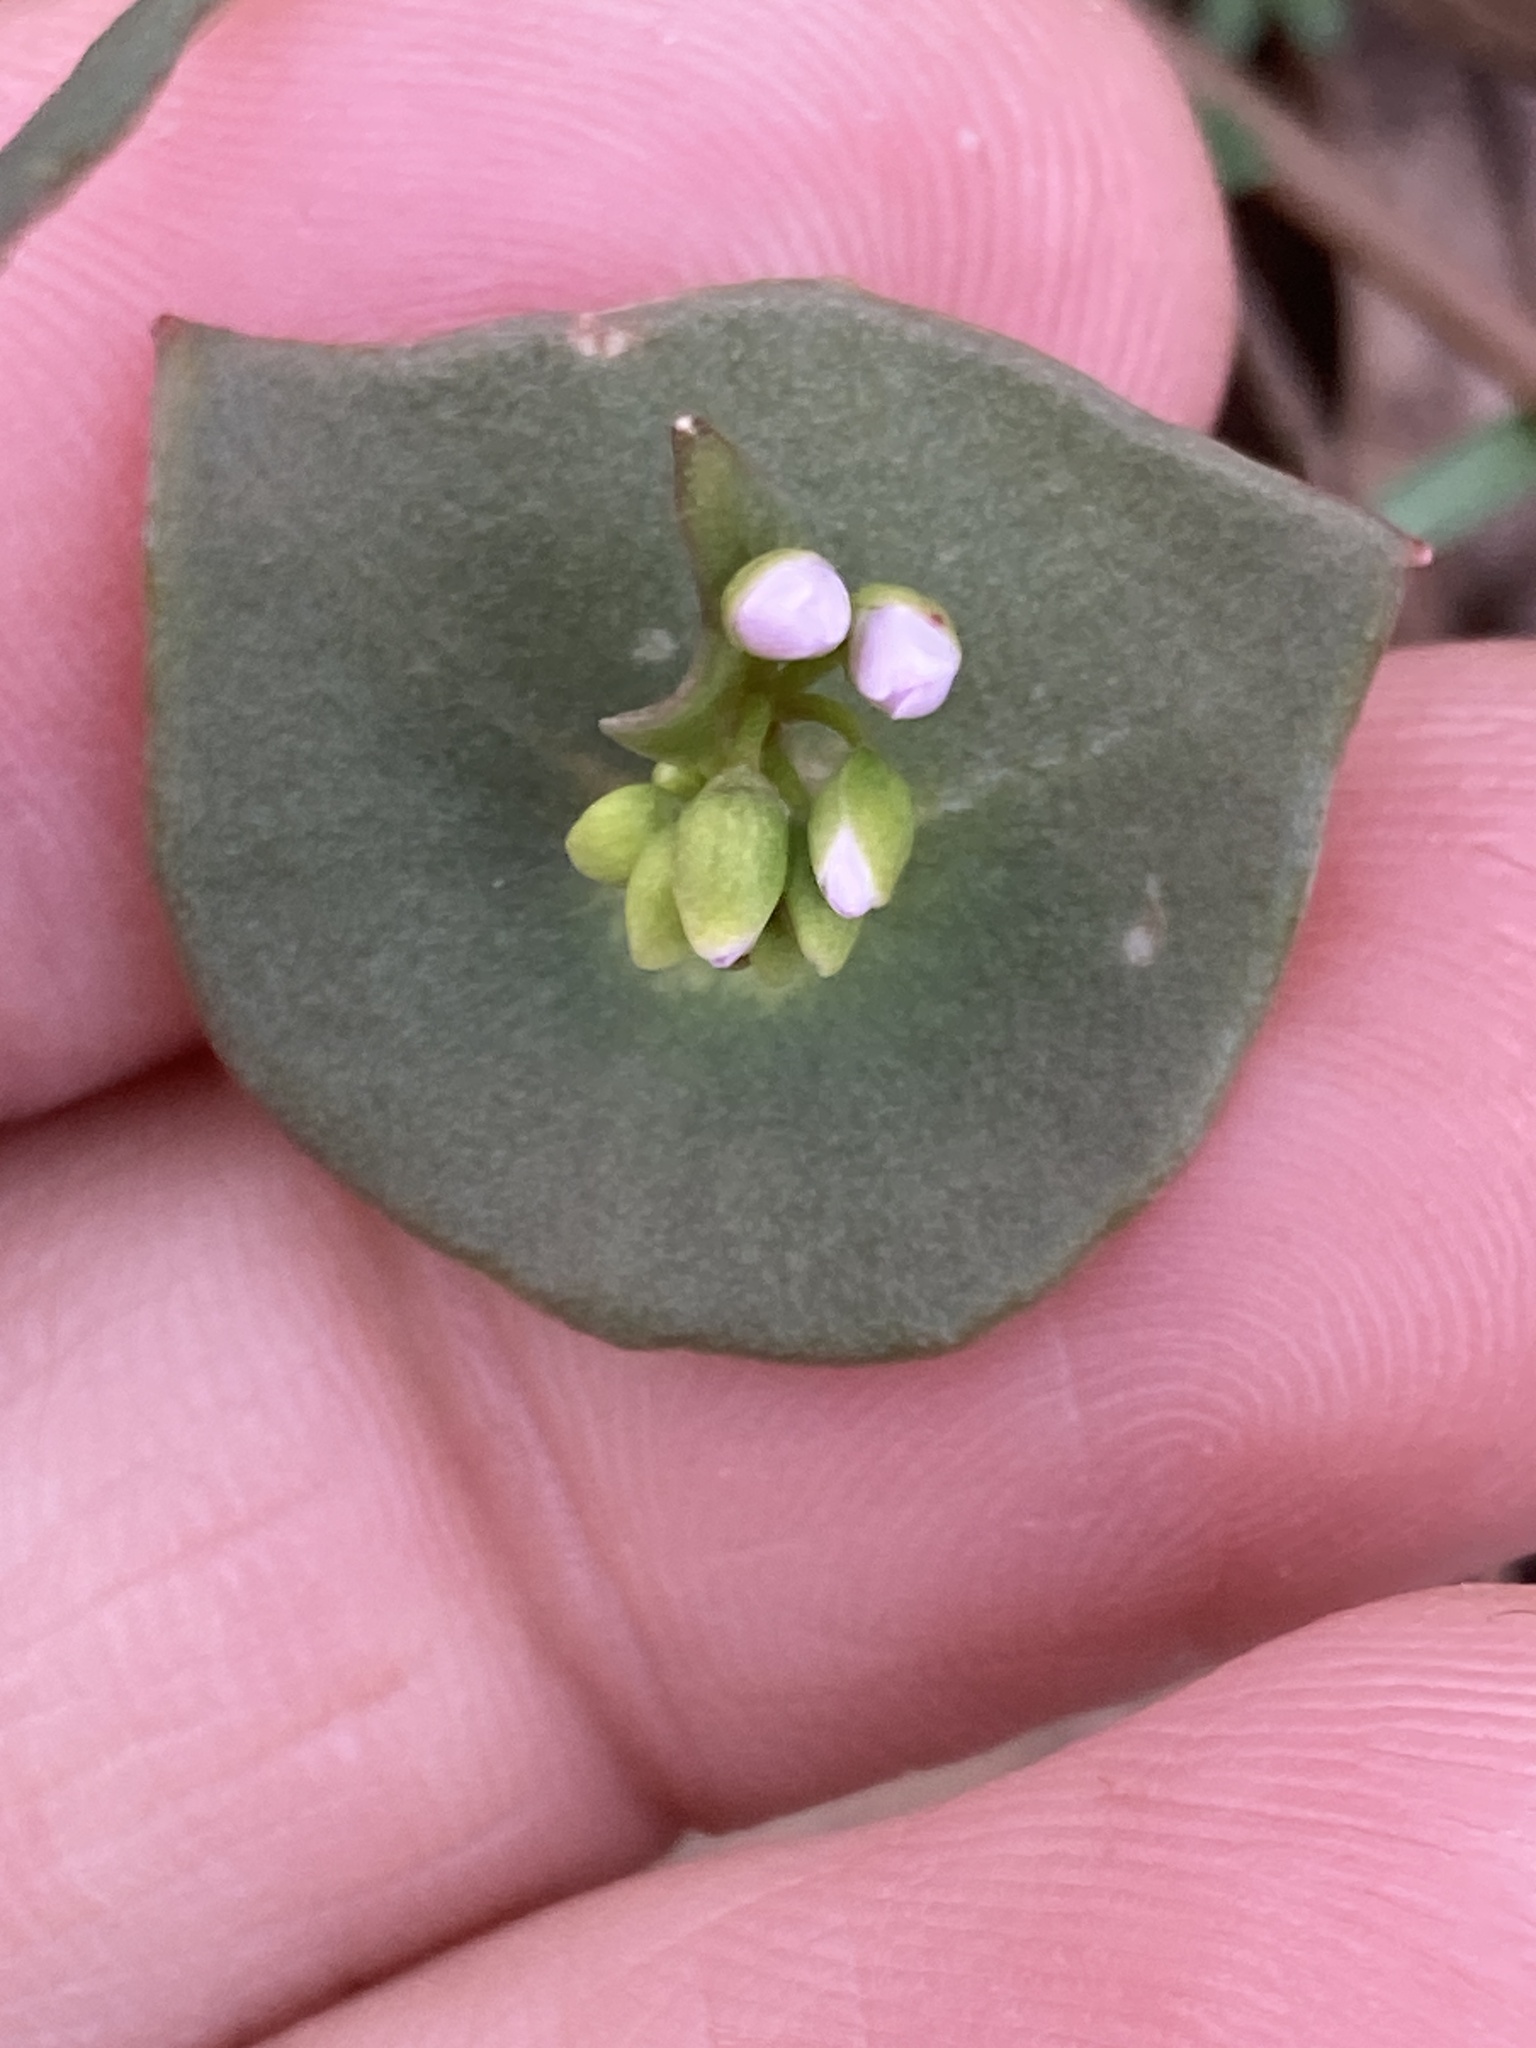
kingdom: Plantae
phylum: Tracheophyta
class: Magnoliopsida
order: Caryophyllales
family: Montiaceae
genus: Claytonia
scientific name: Claytonia parviflora
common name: Indian-lettuce
